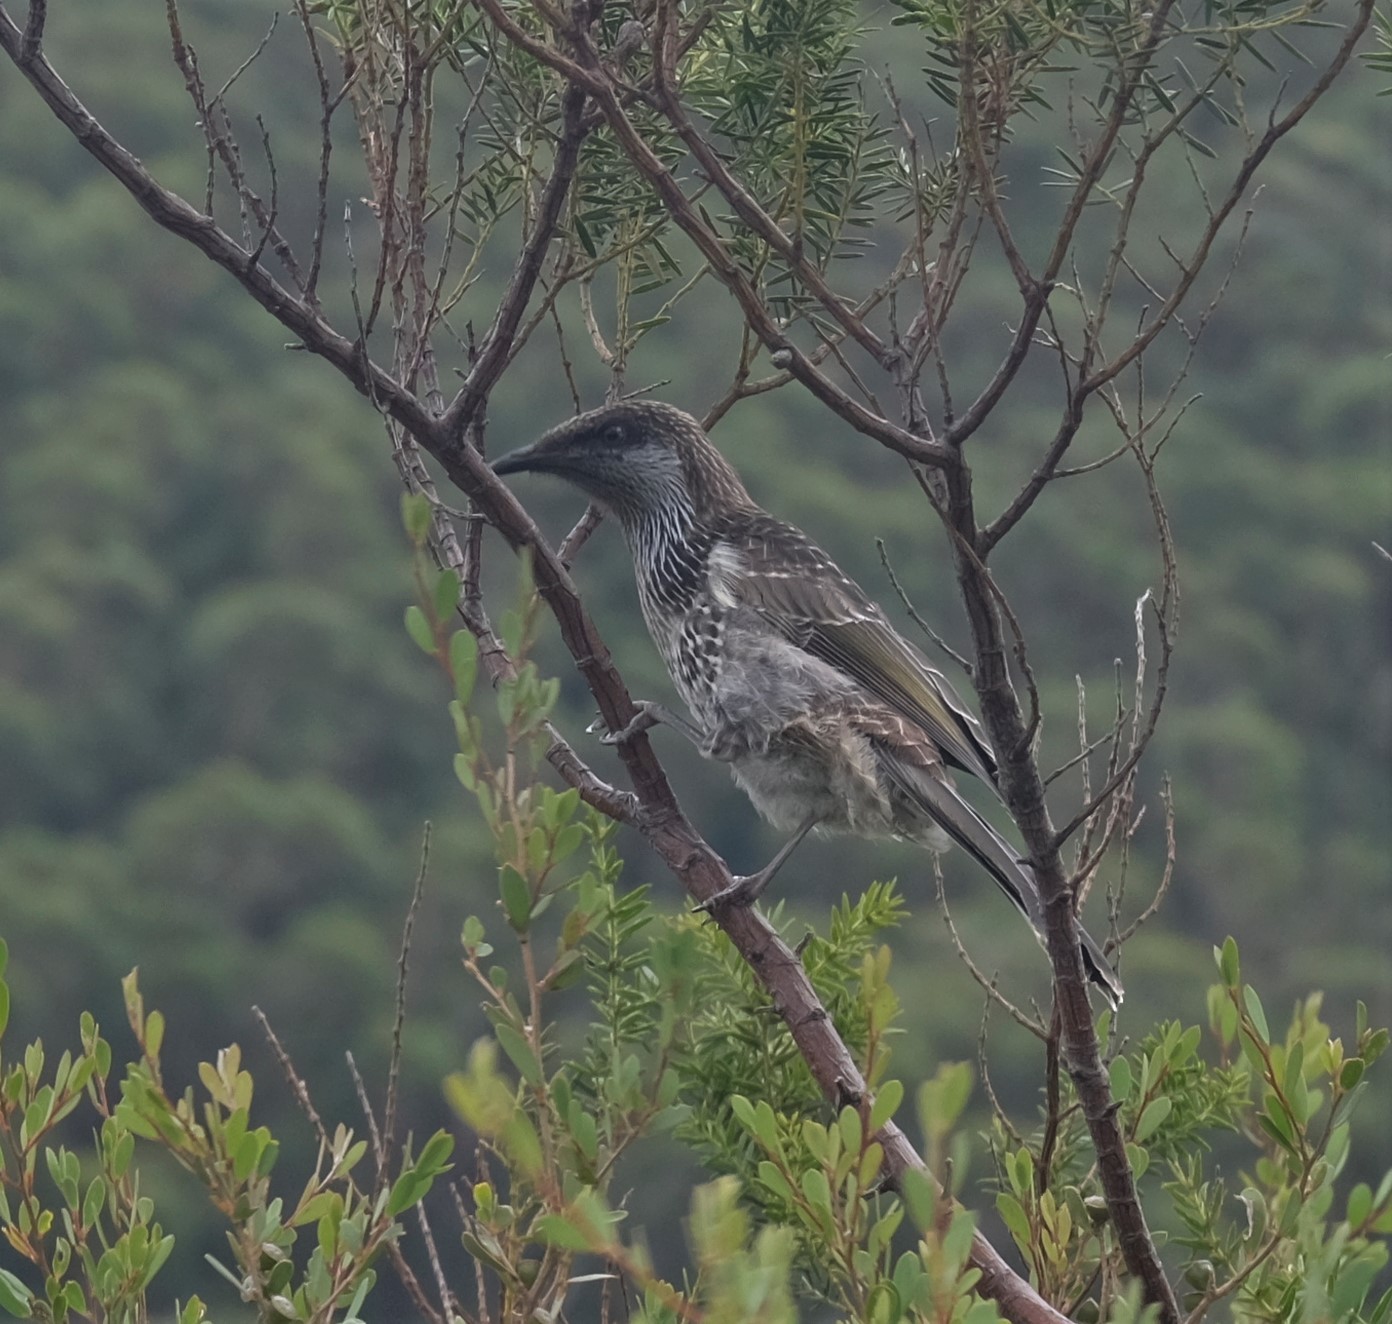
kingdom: Animalia
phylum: Chordata
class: Aves
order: Passeriformes
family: Meliphagidae
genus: Anthochaera
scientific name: Anthochaera chrysoptera
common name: Little wattlebird
